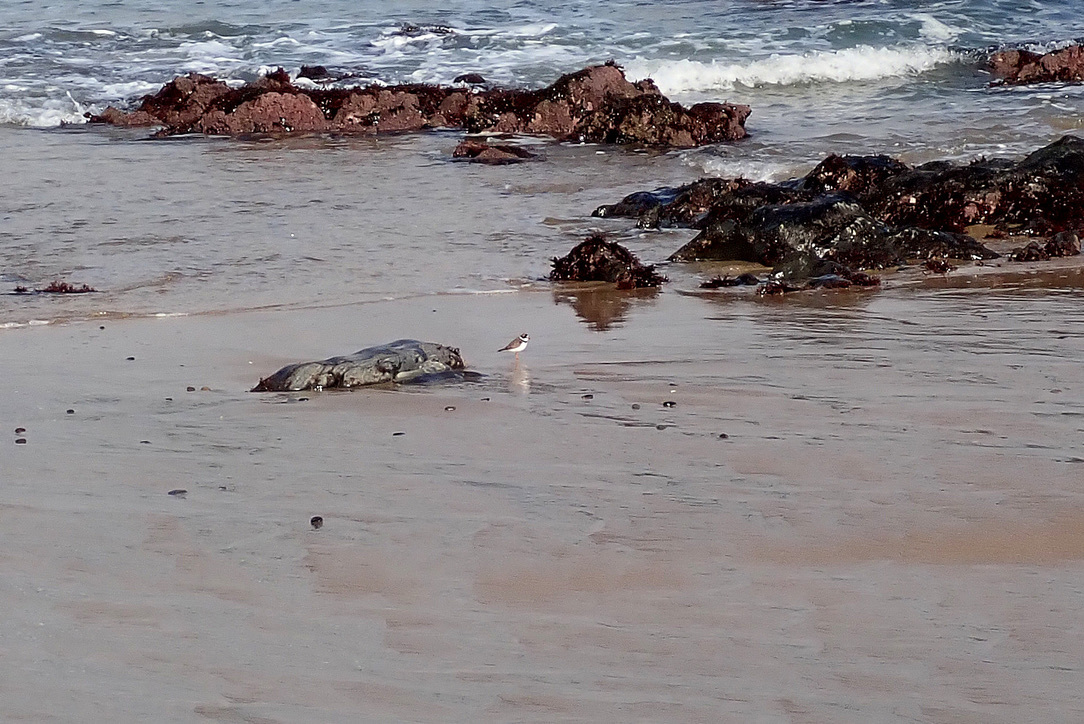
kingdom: Animalia
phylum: Chordata
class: Aves
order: Charadriiformes
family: Charadriidae
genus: Charadrius
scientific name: Charadrius semipalmatus
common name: Semipalmated plover
